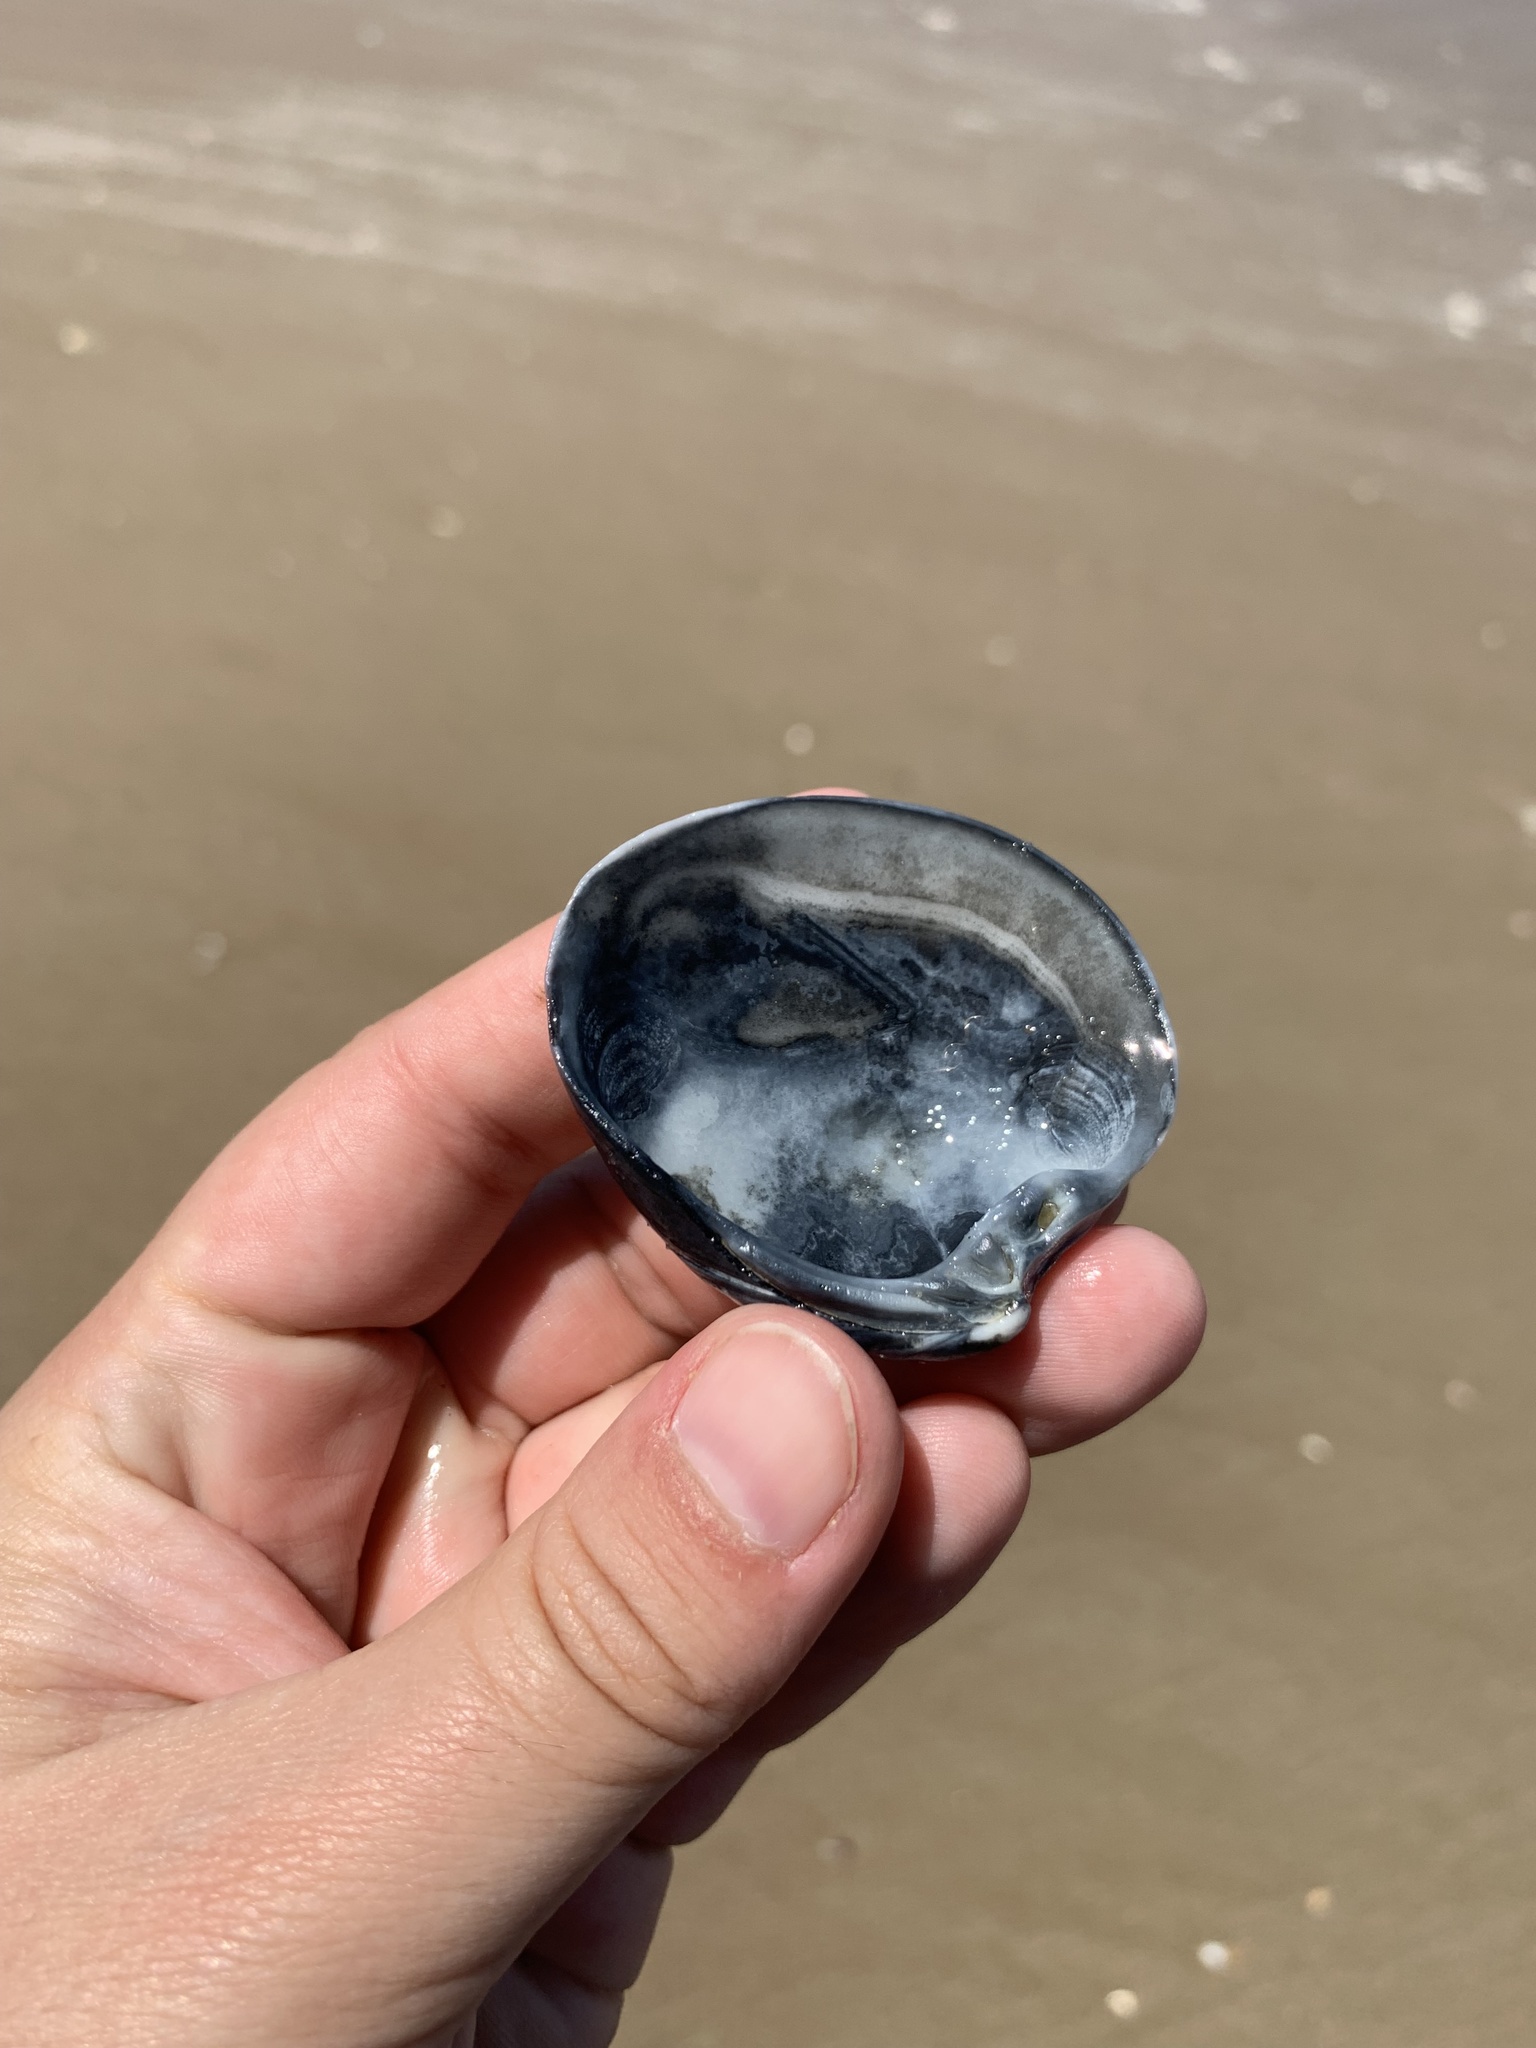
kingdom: Animalia
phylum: Mollusca
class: Bivalvia
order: Venerida
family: Veneridae
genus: Eucallista
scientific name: Eucallista purpurata
